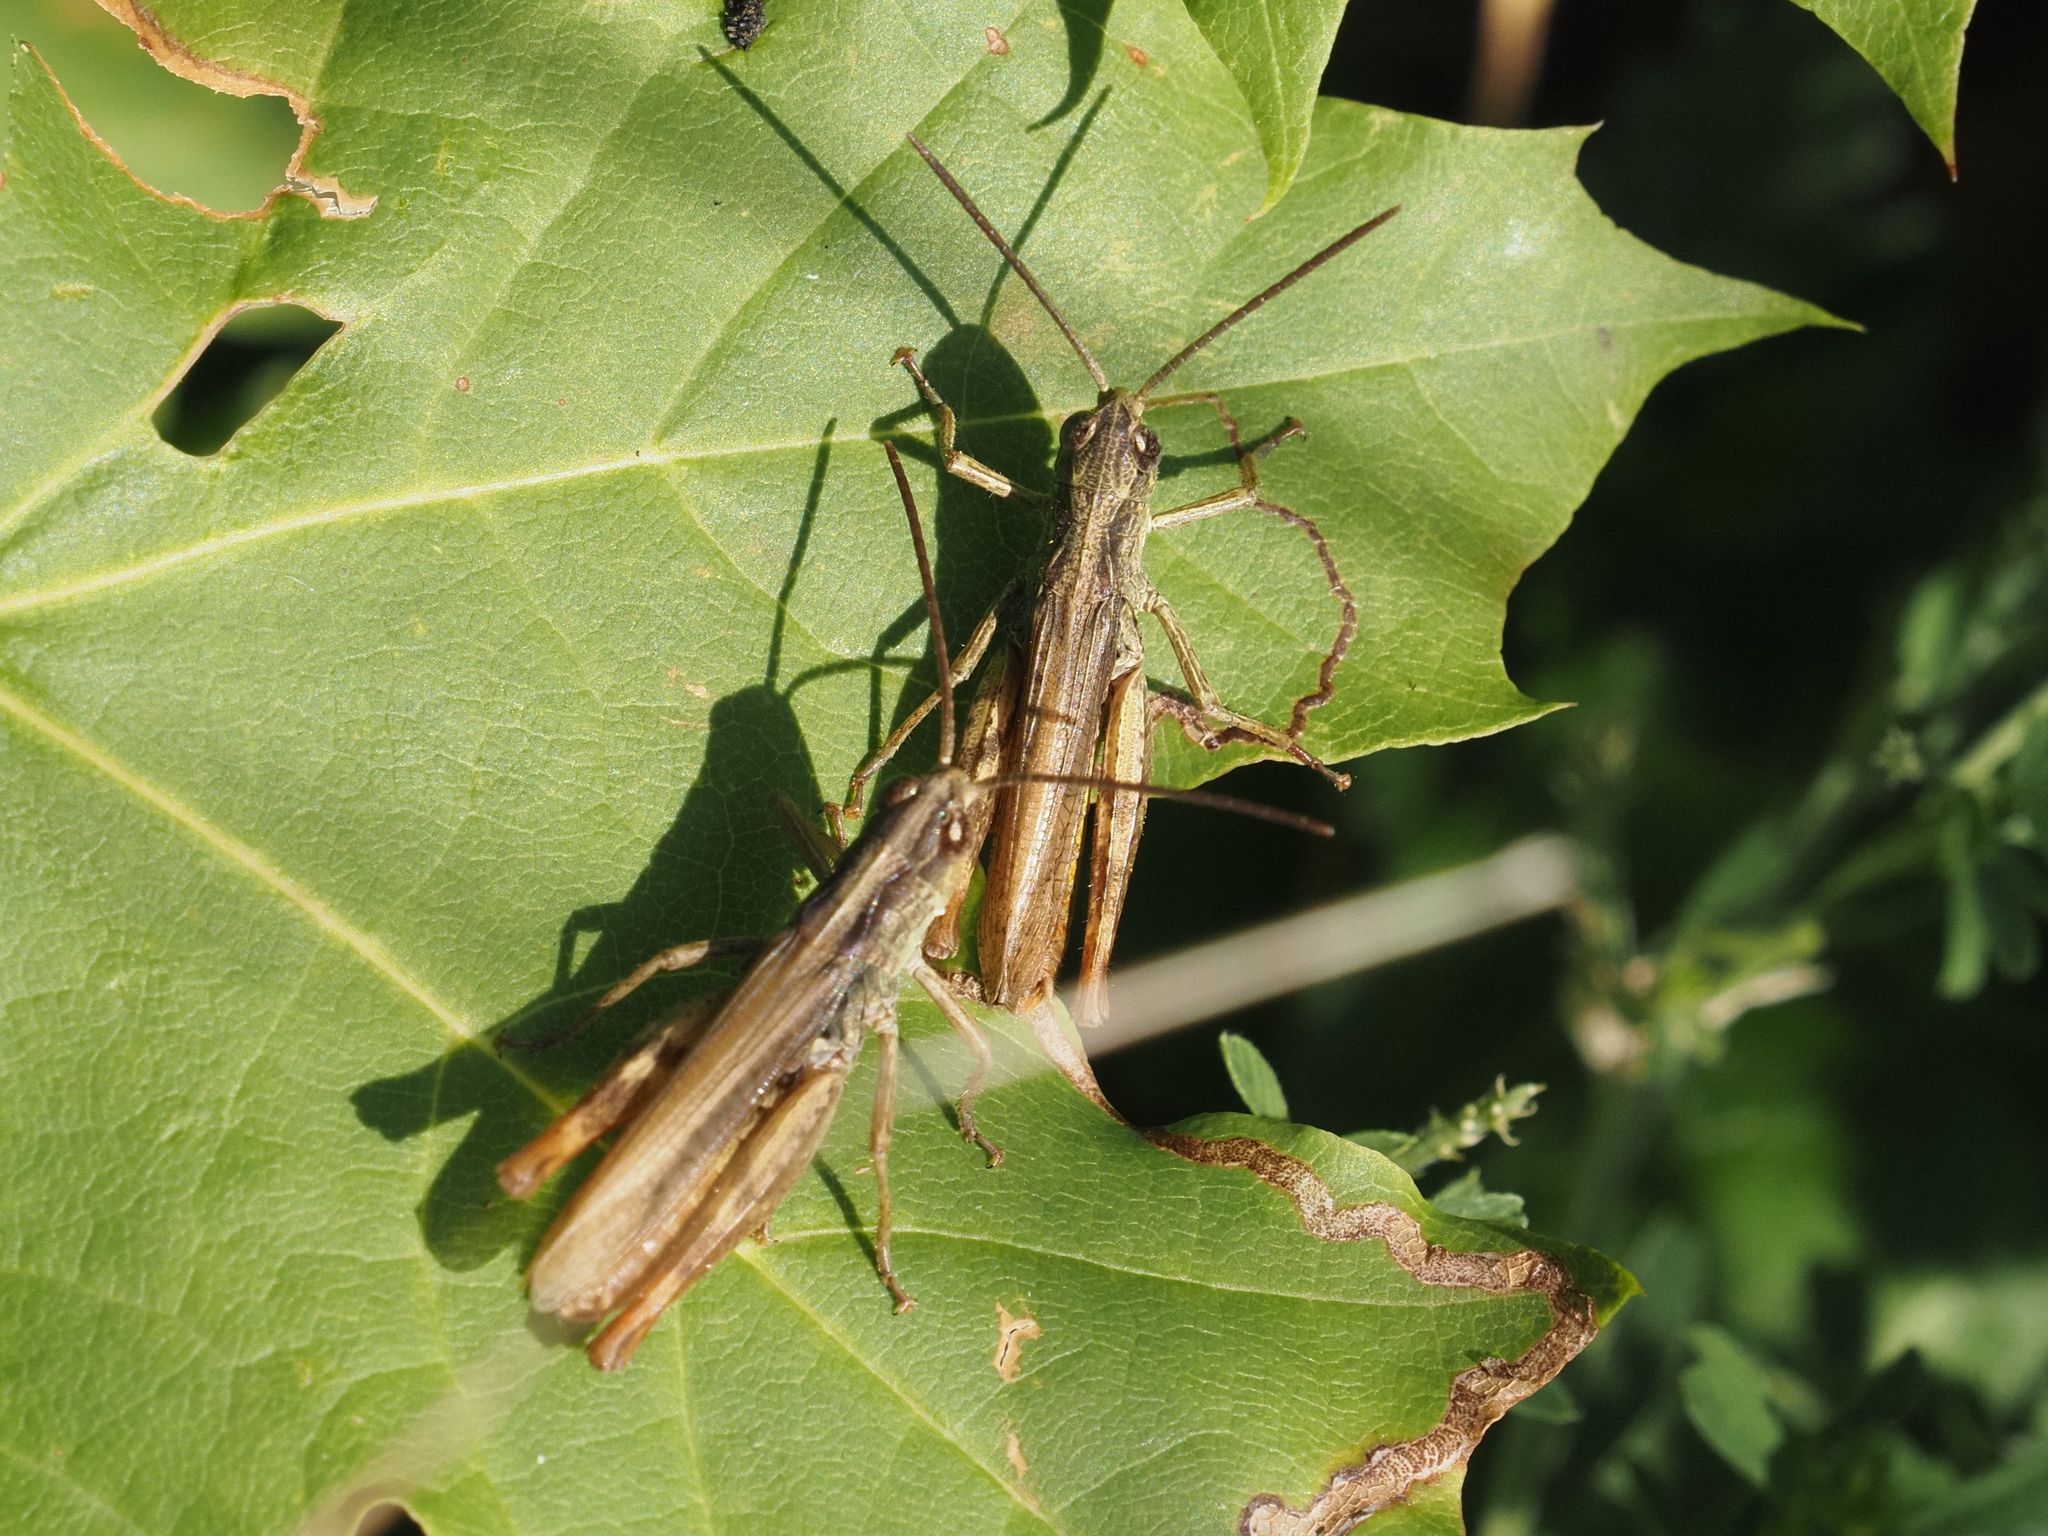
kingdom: Animalia
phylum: Arthropoda
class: Insecta
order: Orthoptera
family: Acrididae
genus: Chorthippus
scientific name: Chorthippus apricarius
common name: Upland field grasshopper
